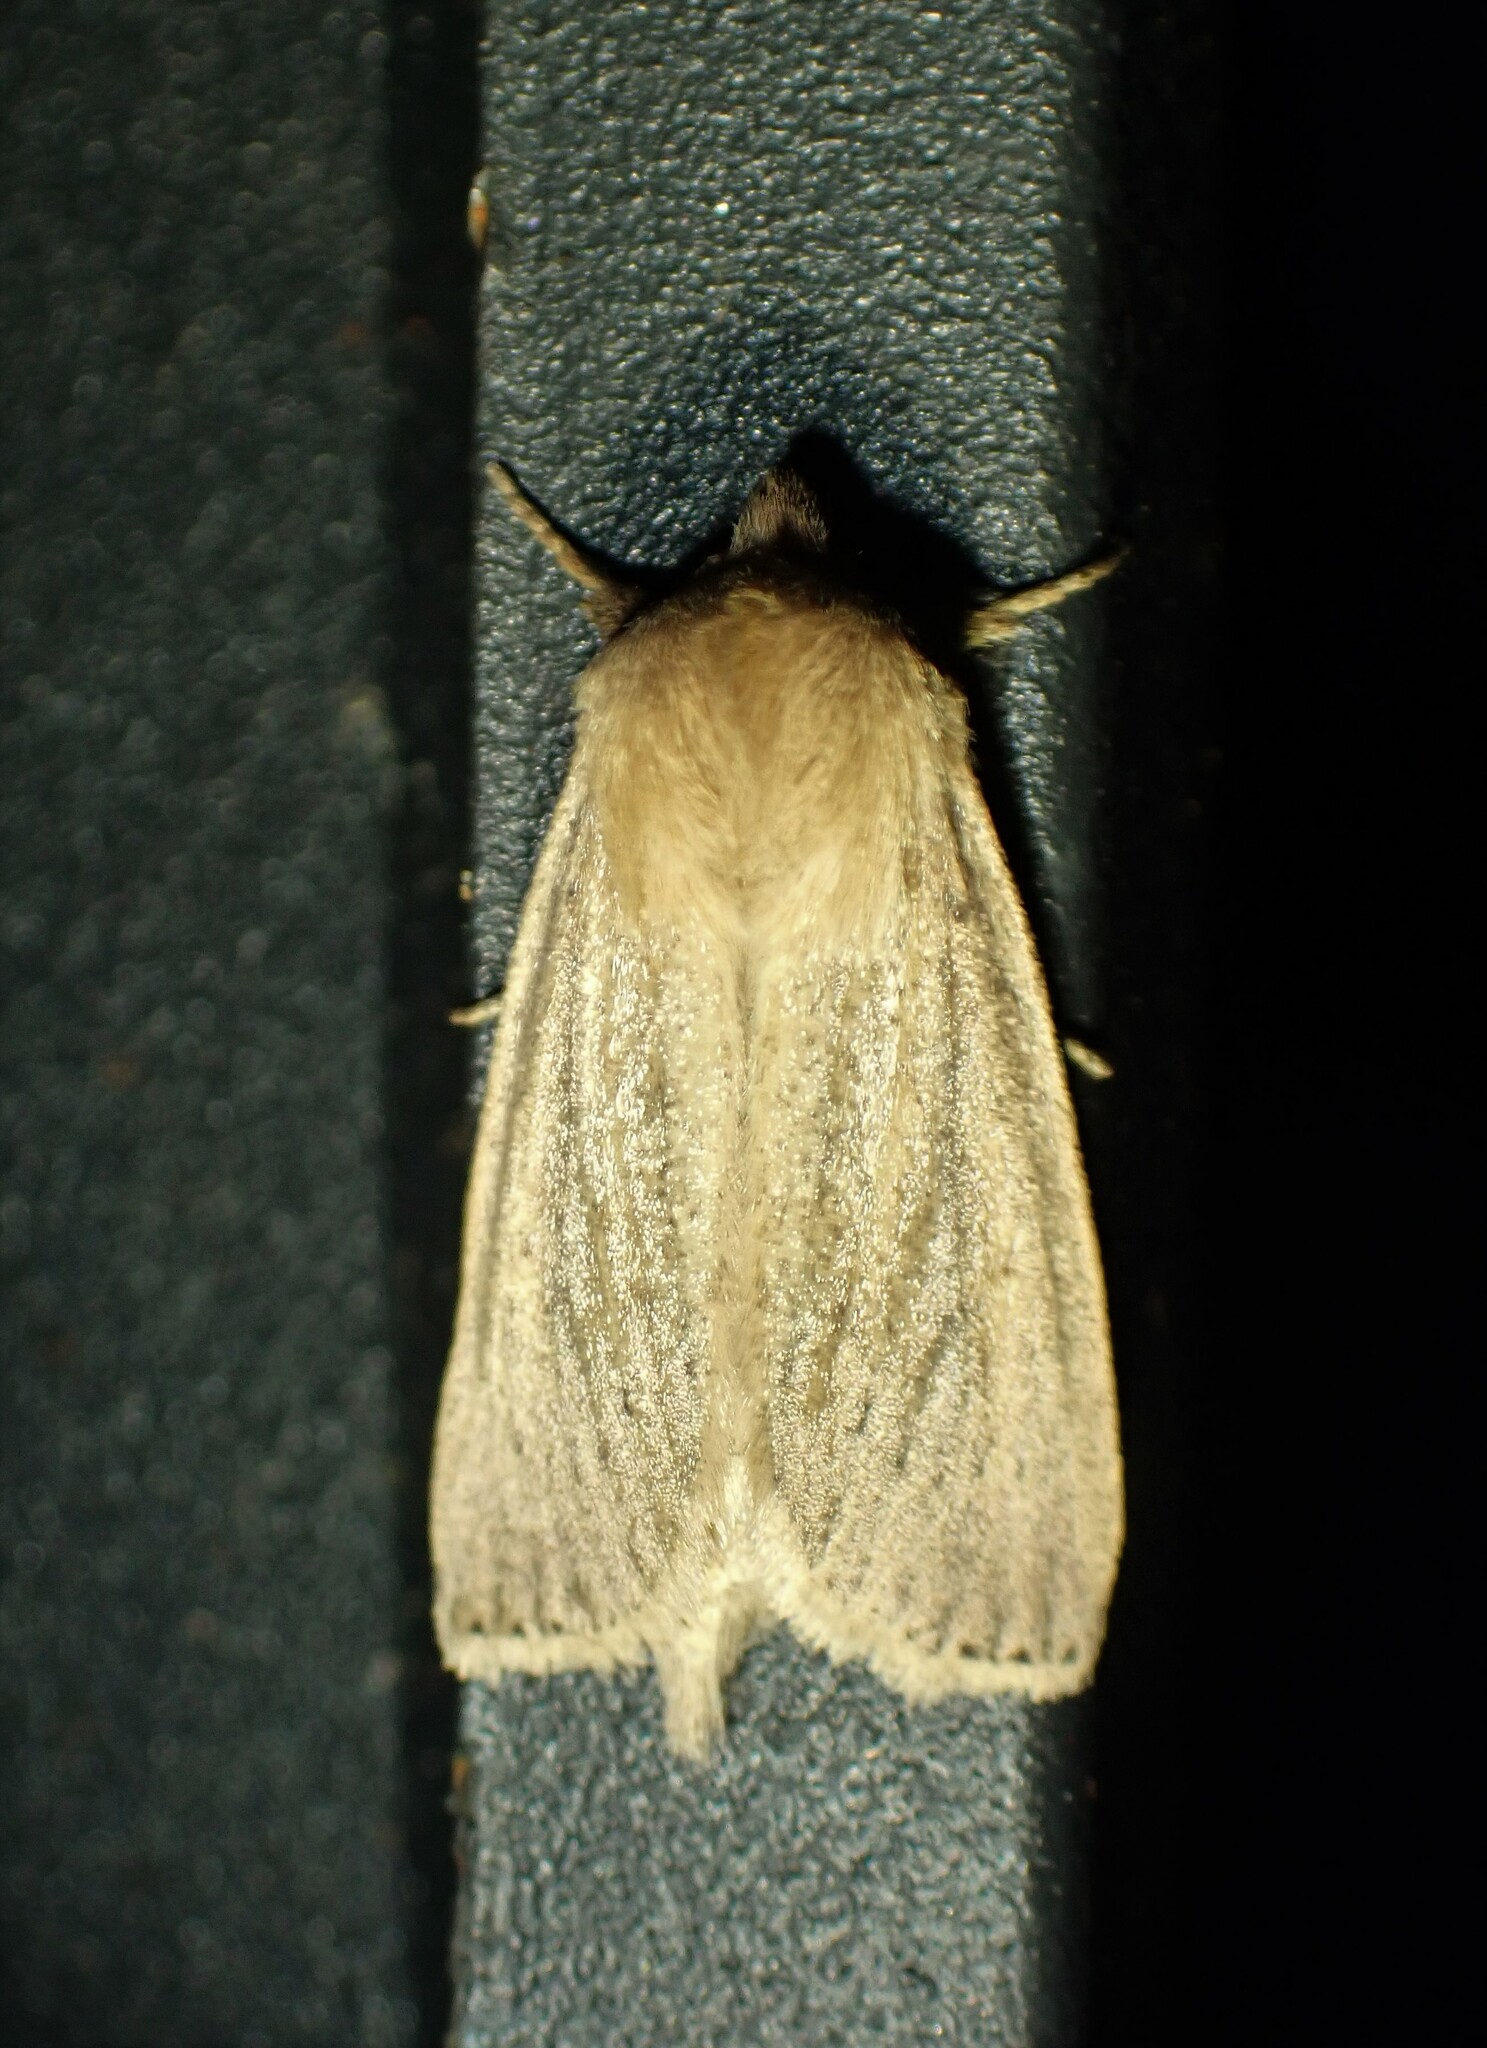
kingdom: Animalia
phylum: Arthropoda
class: Insecta
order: Lepidoptera
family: Noctuidae
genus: Globia
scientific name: Globia oblonga
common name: Oblong sedge borer moth
